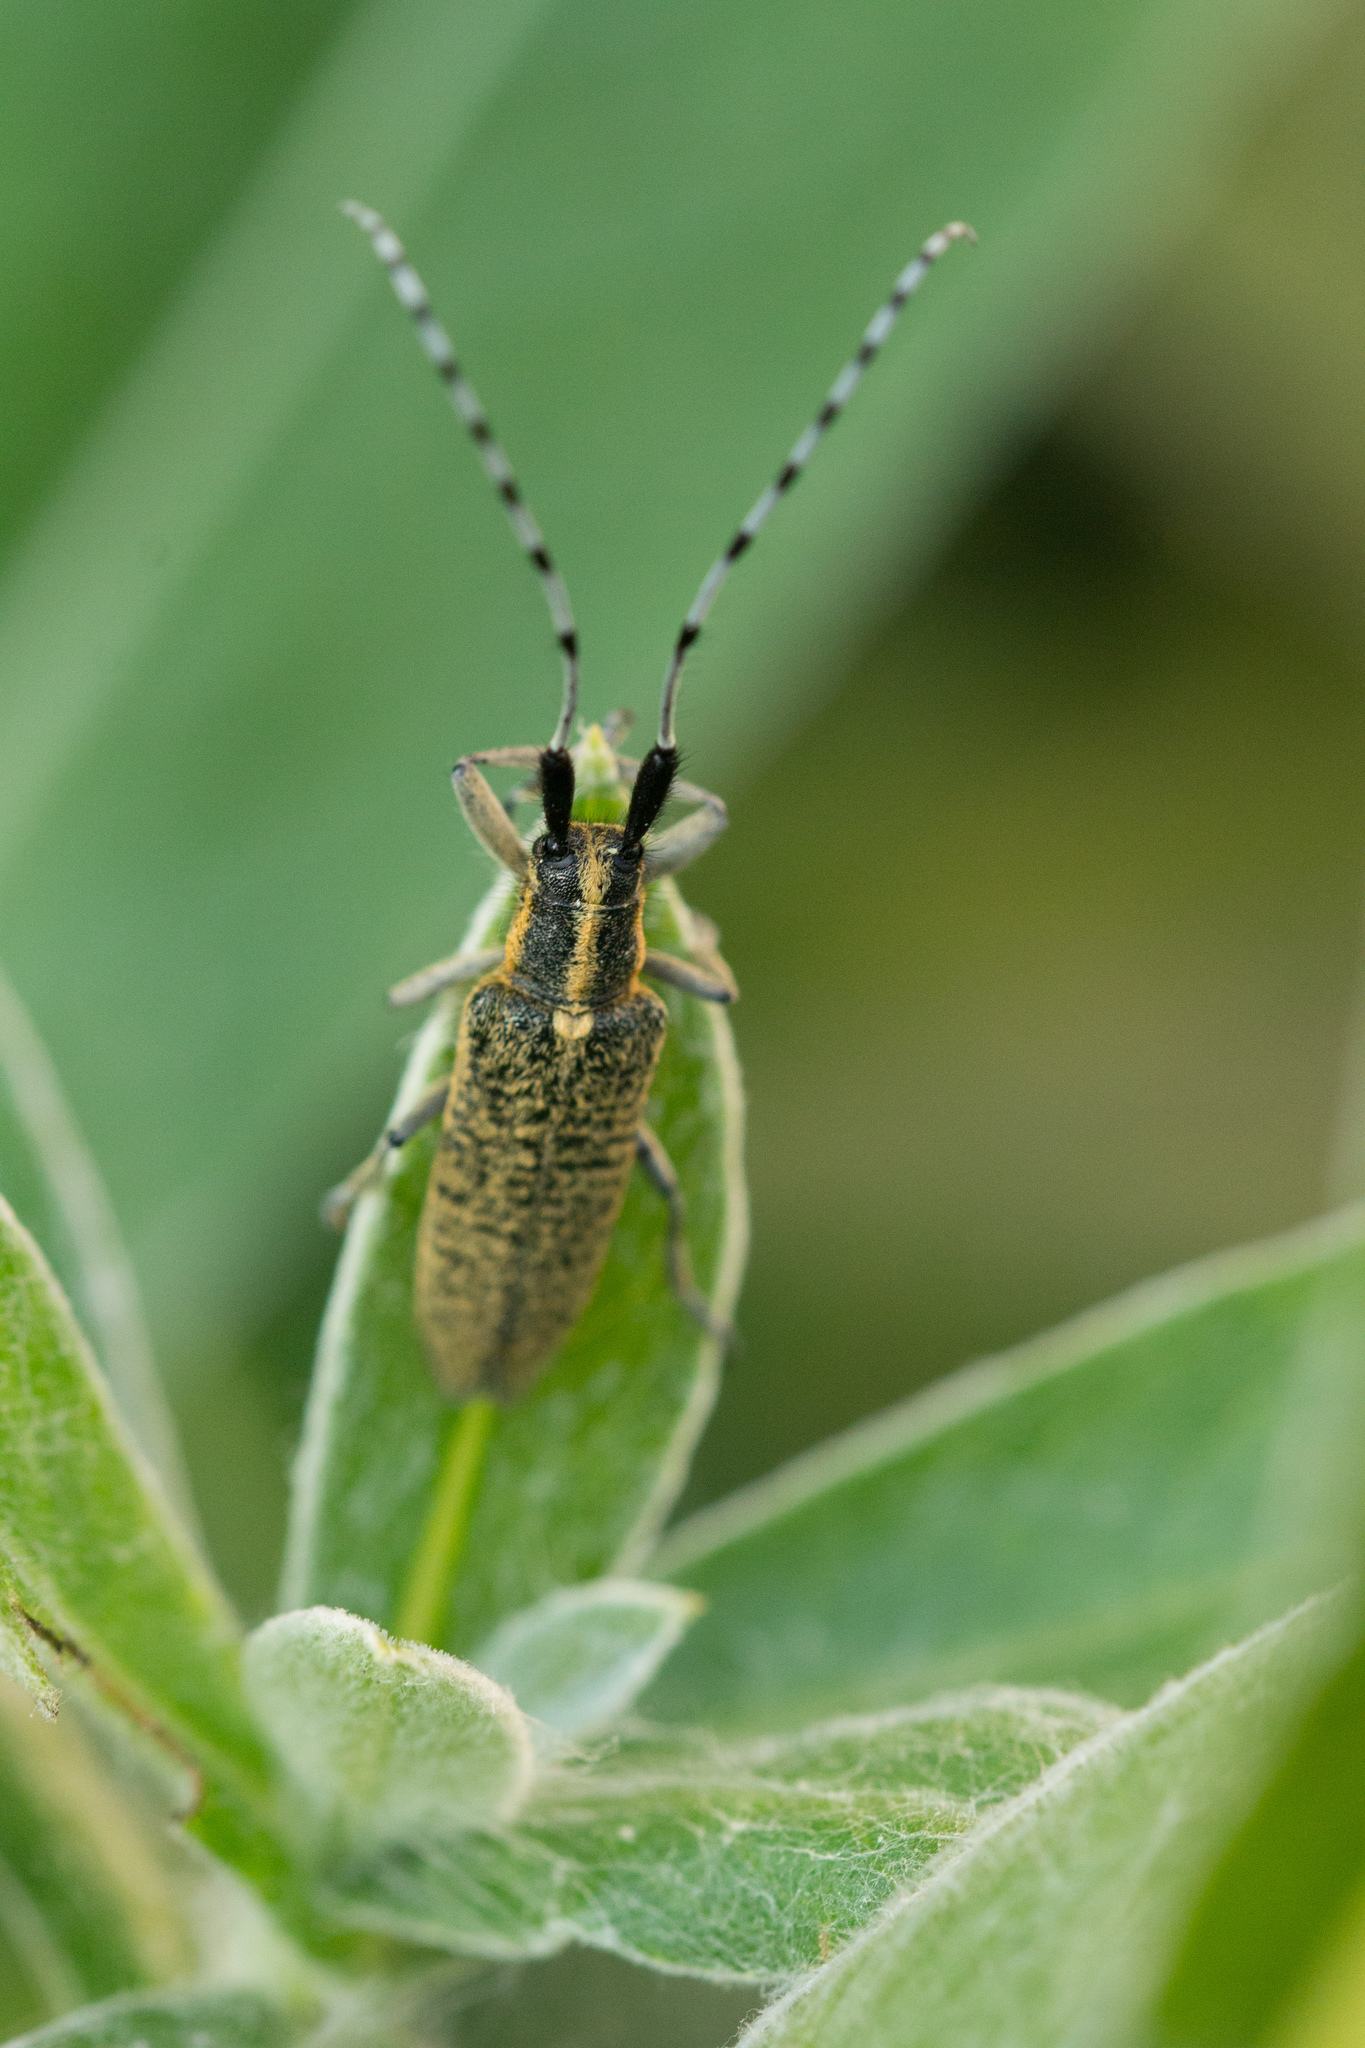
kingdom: Animalia
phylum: Arthropoda
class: Insecta
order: Coleoptera
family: Cerambycidae
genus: Agapanthia
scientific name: Agapanthia villosoviridescens
